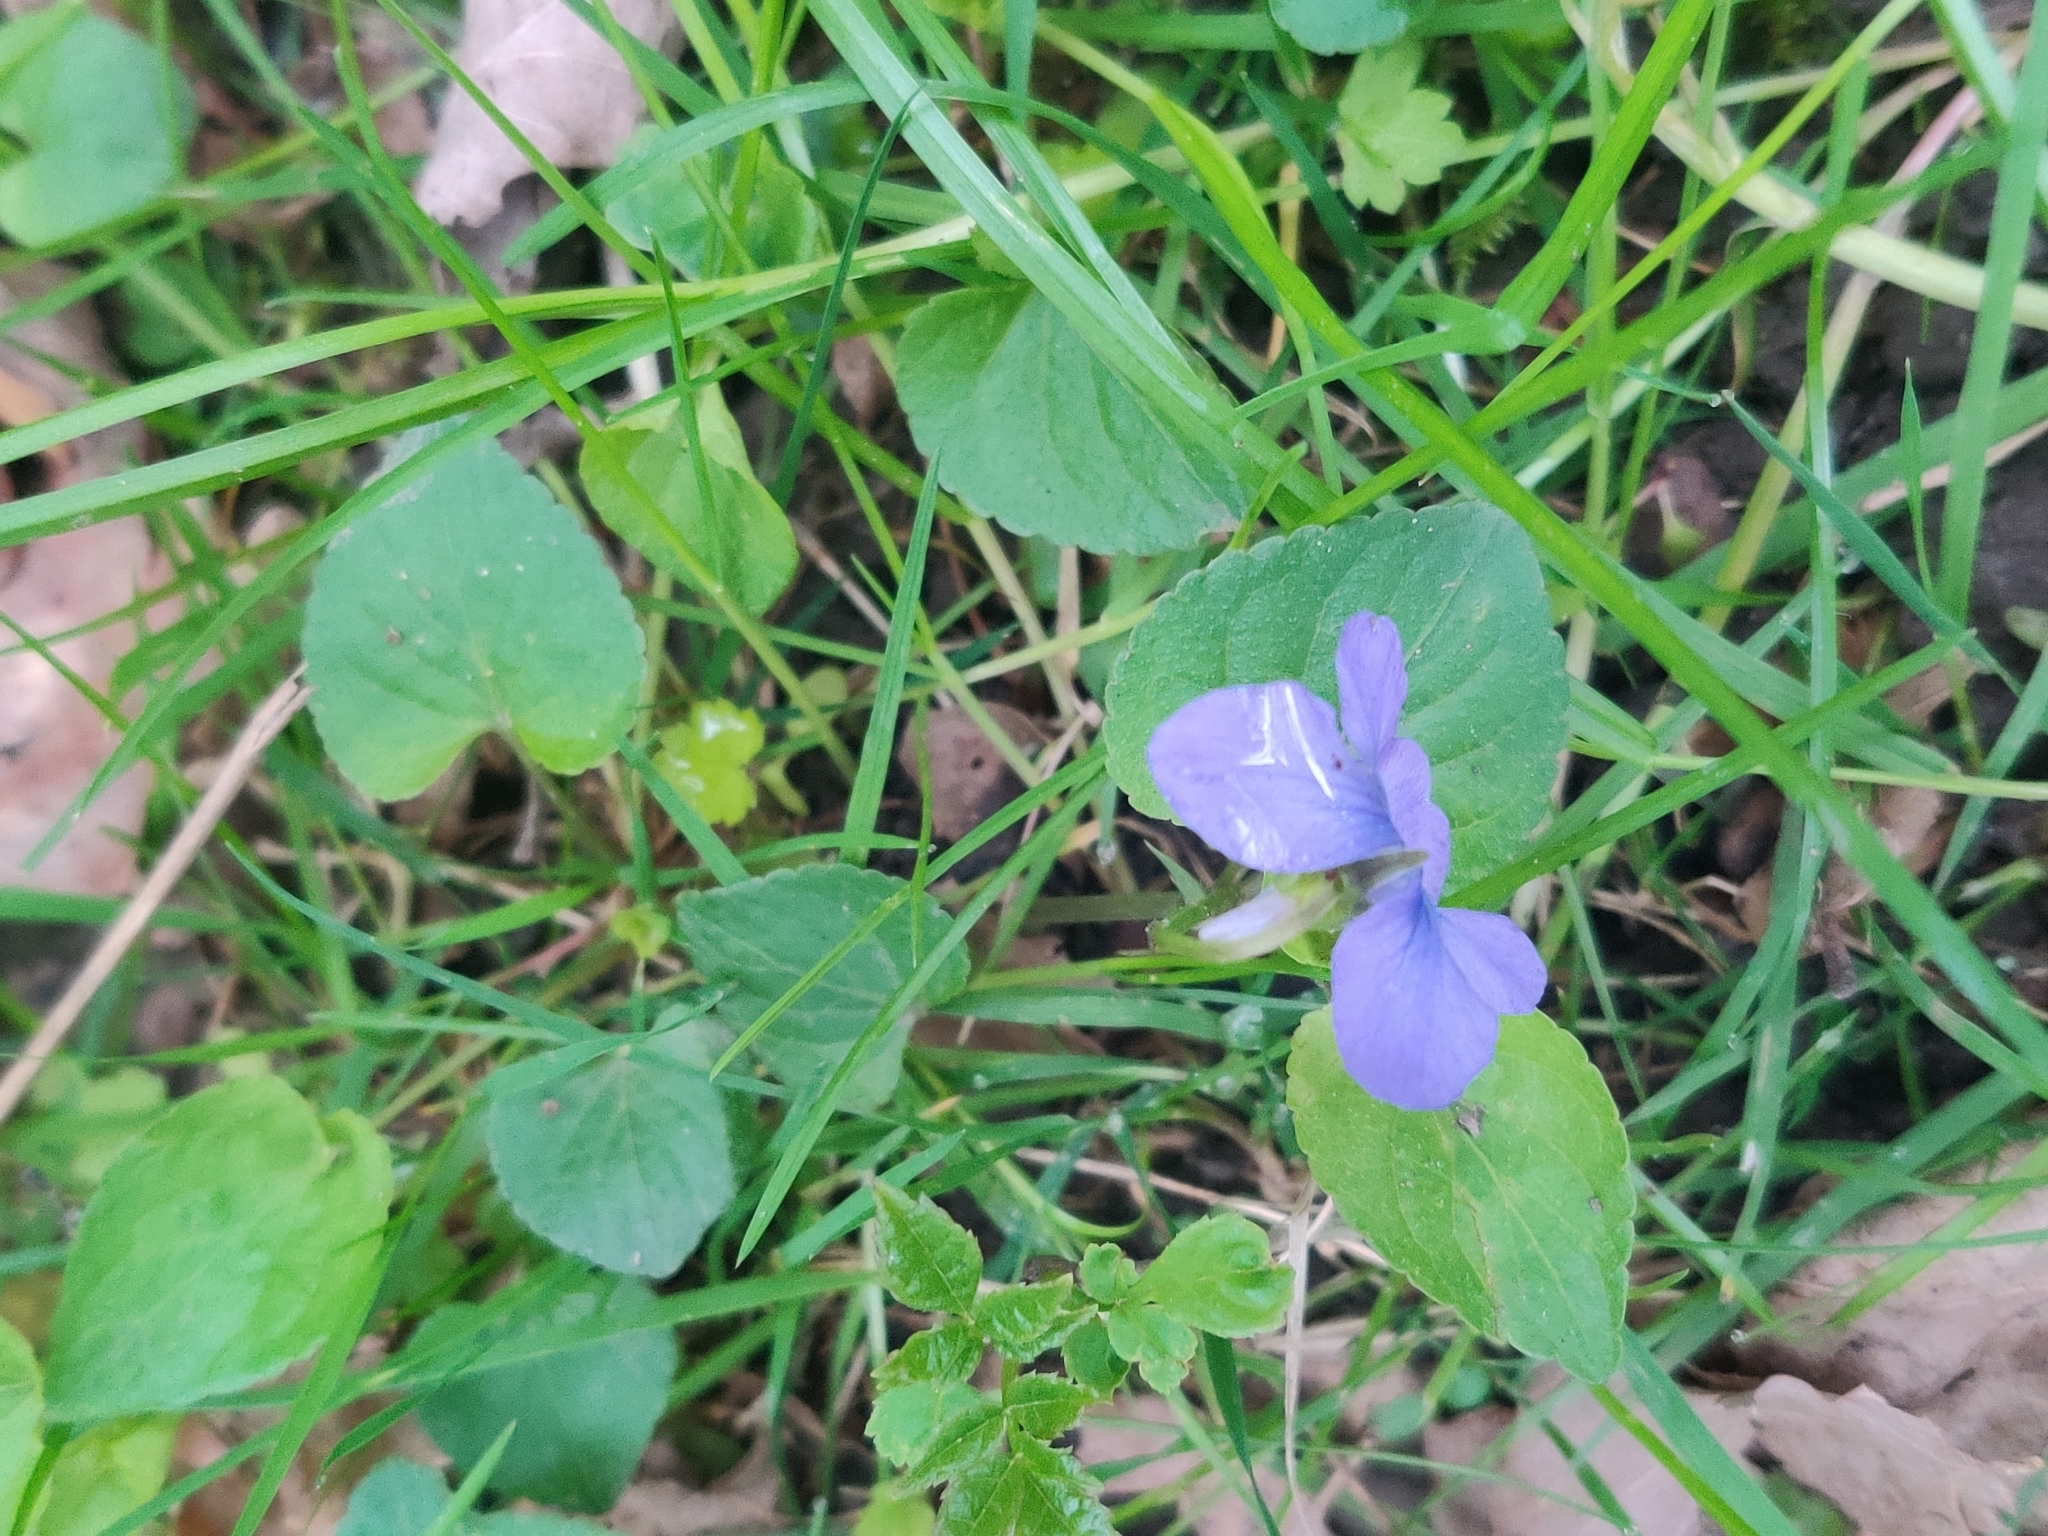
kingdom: Plantae
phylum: Tracheophyta
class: Magnoliopsida
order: Malpighiales
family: Violaceae
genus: Viola
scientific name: Viola riviniana
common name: Common dog-violet
